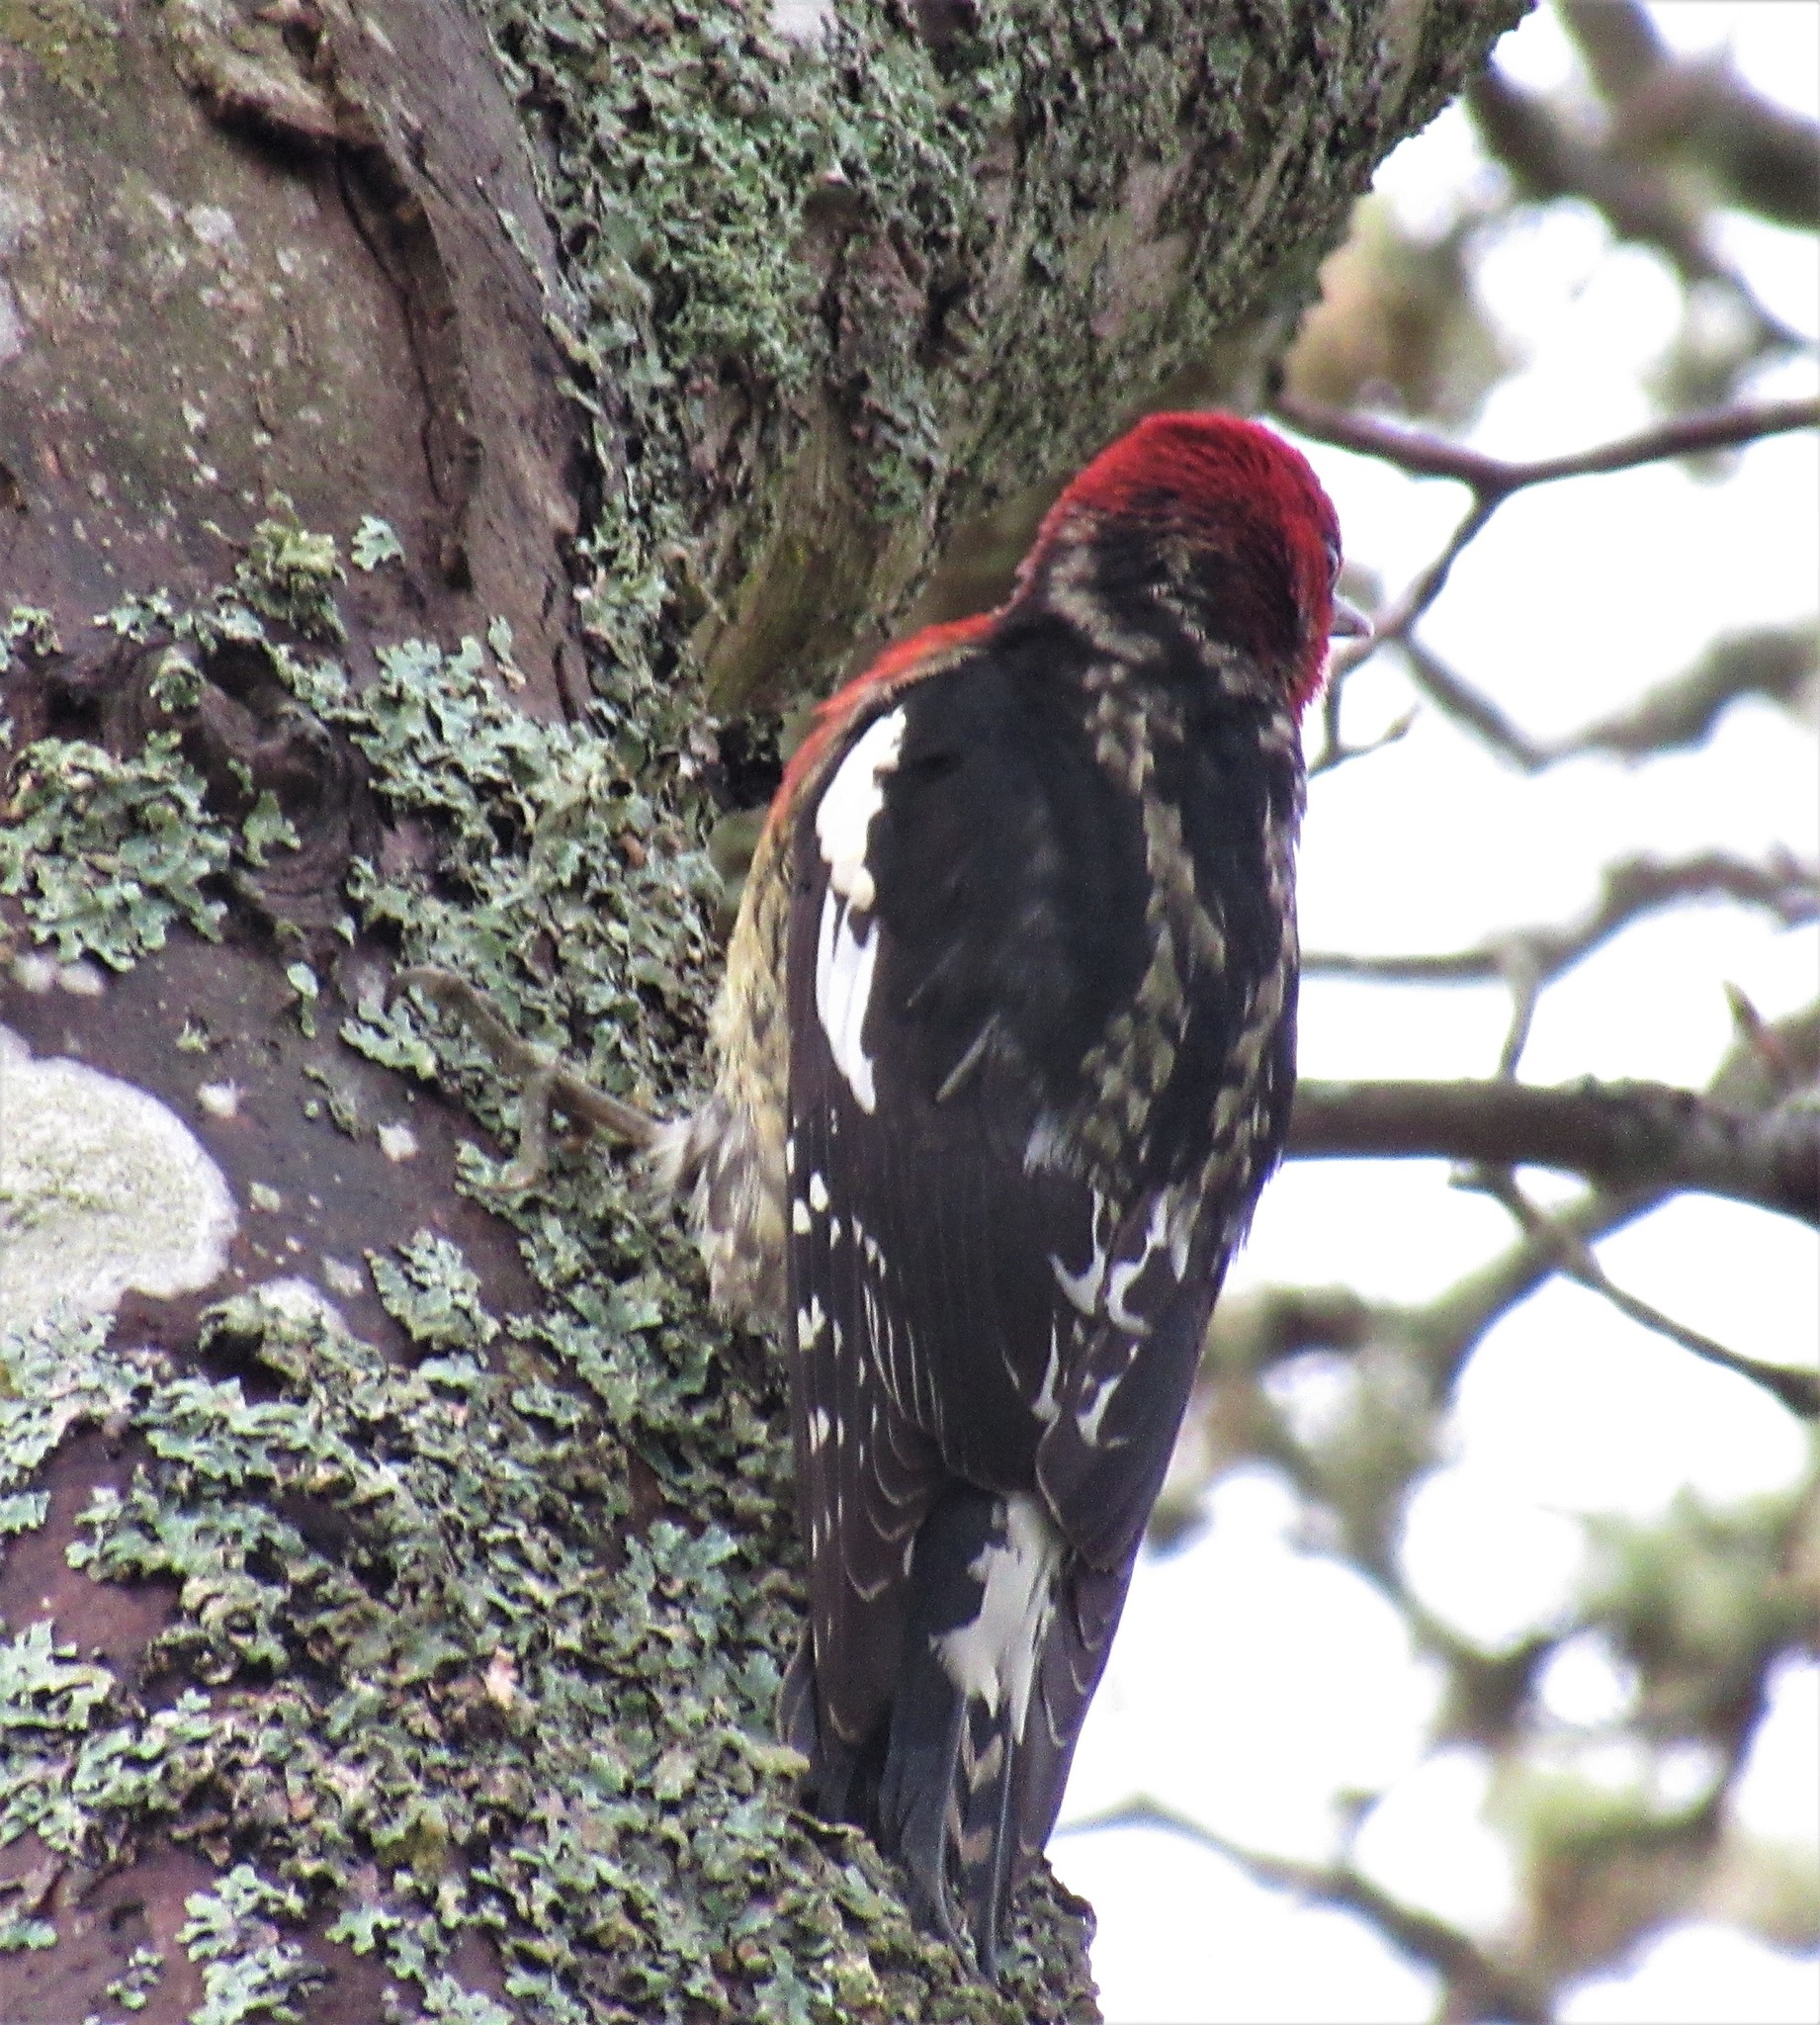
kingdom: Animalia
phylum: Chordata
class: Aves
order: Piciformes
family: Picidae
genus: Sphyrapicus
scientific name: Sphyrapicus ruber
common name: Red-breasted sapsucker
